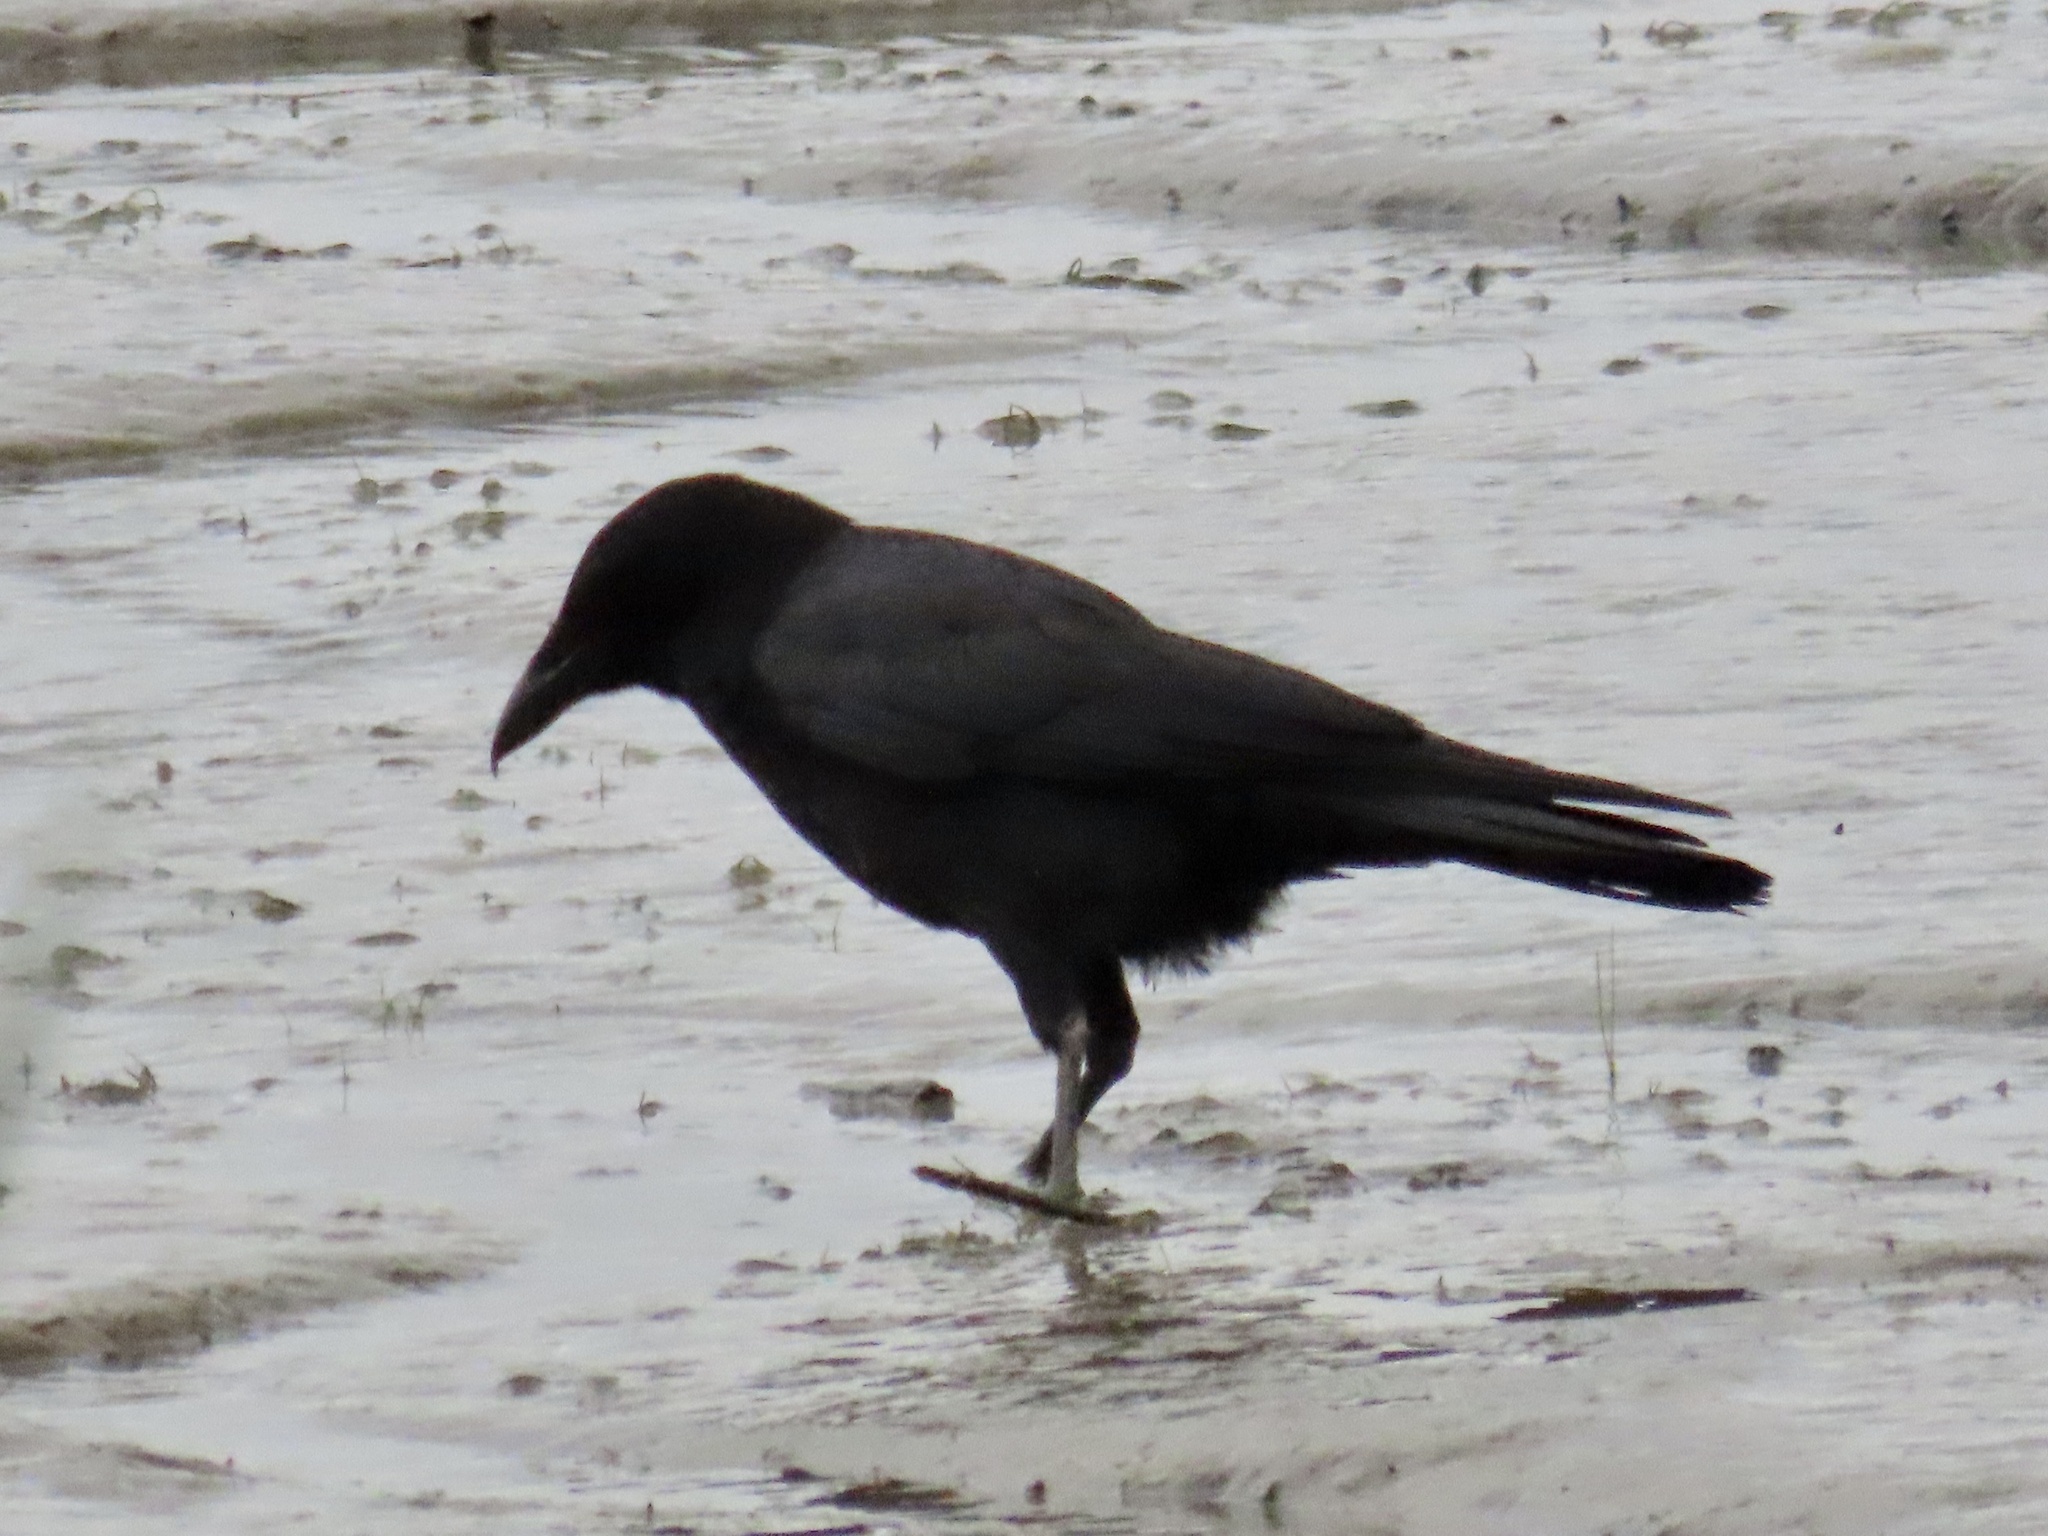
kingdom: Animalia
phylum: Chordata
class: Aves
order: Passeriformes
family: Corvidae
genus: Corvus
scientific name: Corvus brachyrhynchos
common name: American crow
